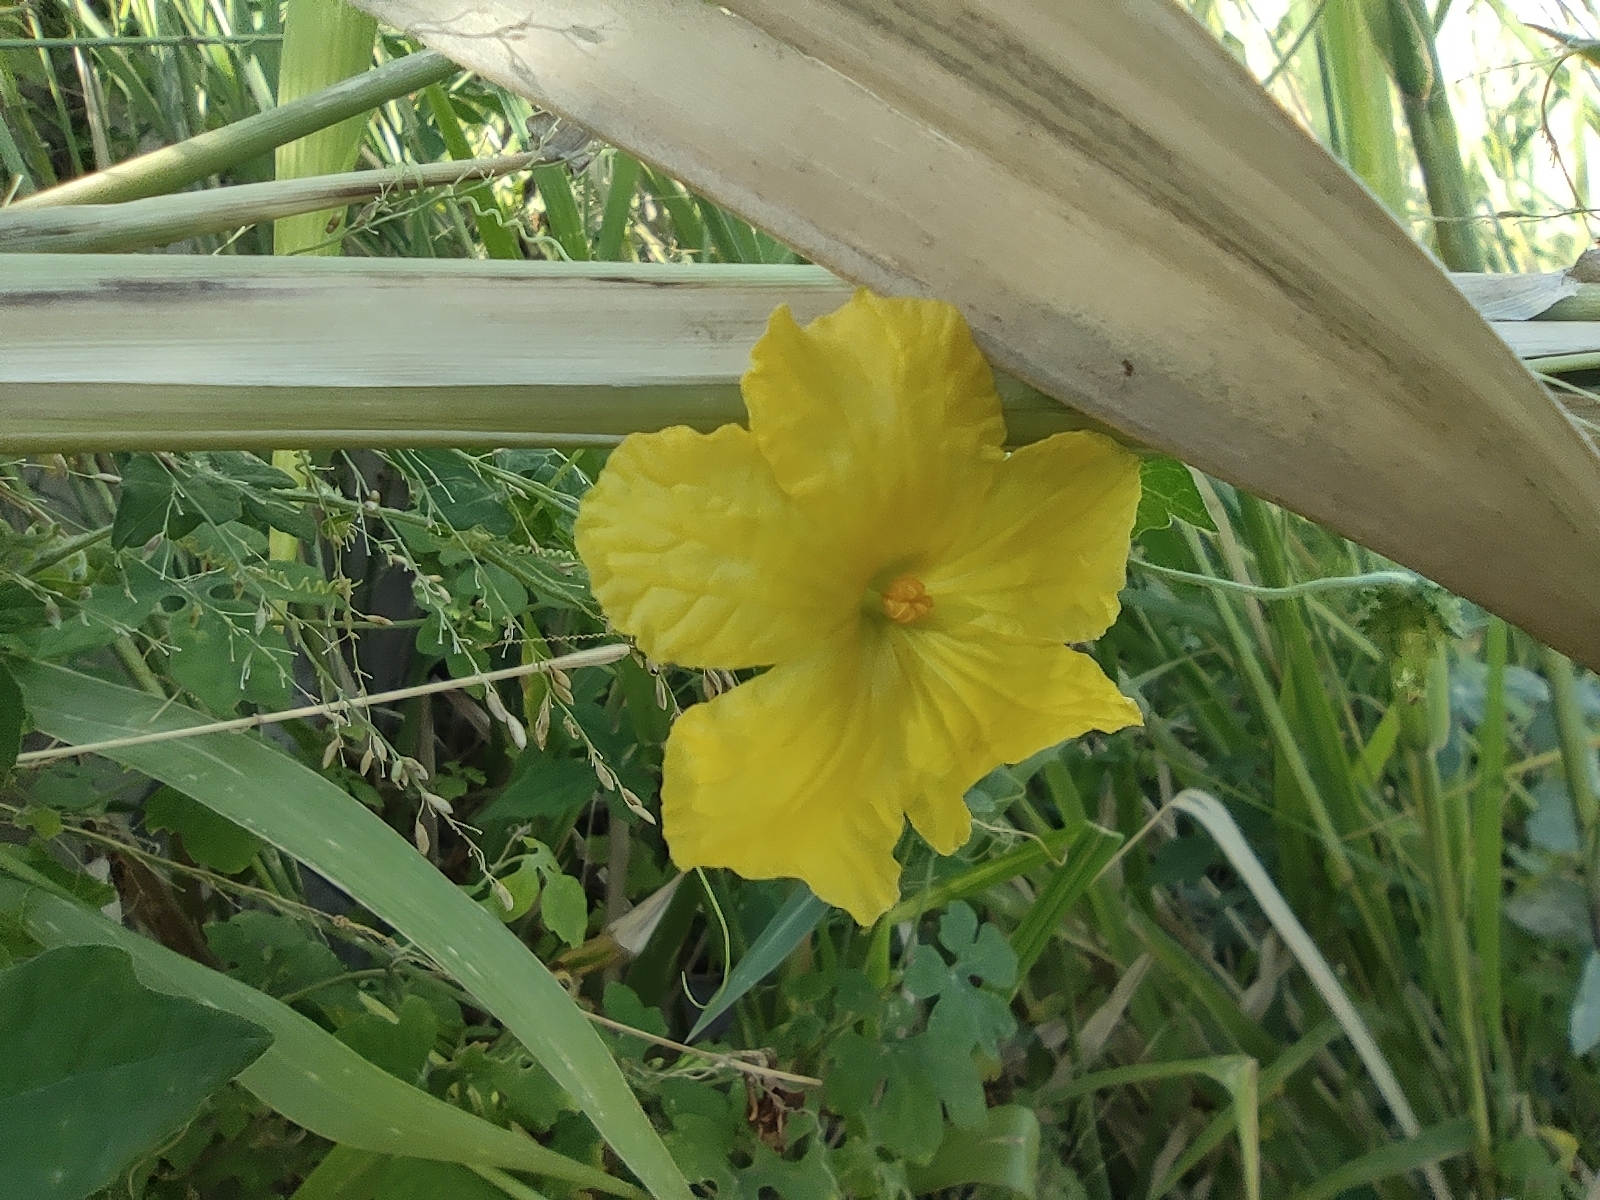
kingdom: Plantae
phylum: Tracheophyta
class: Magnoliopsida
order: Cucurbitales
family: Cucurbitaceae
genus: Momordica
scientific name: Momordica charantia
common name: Balsampear
